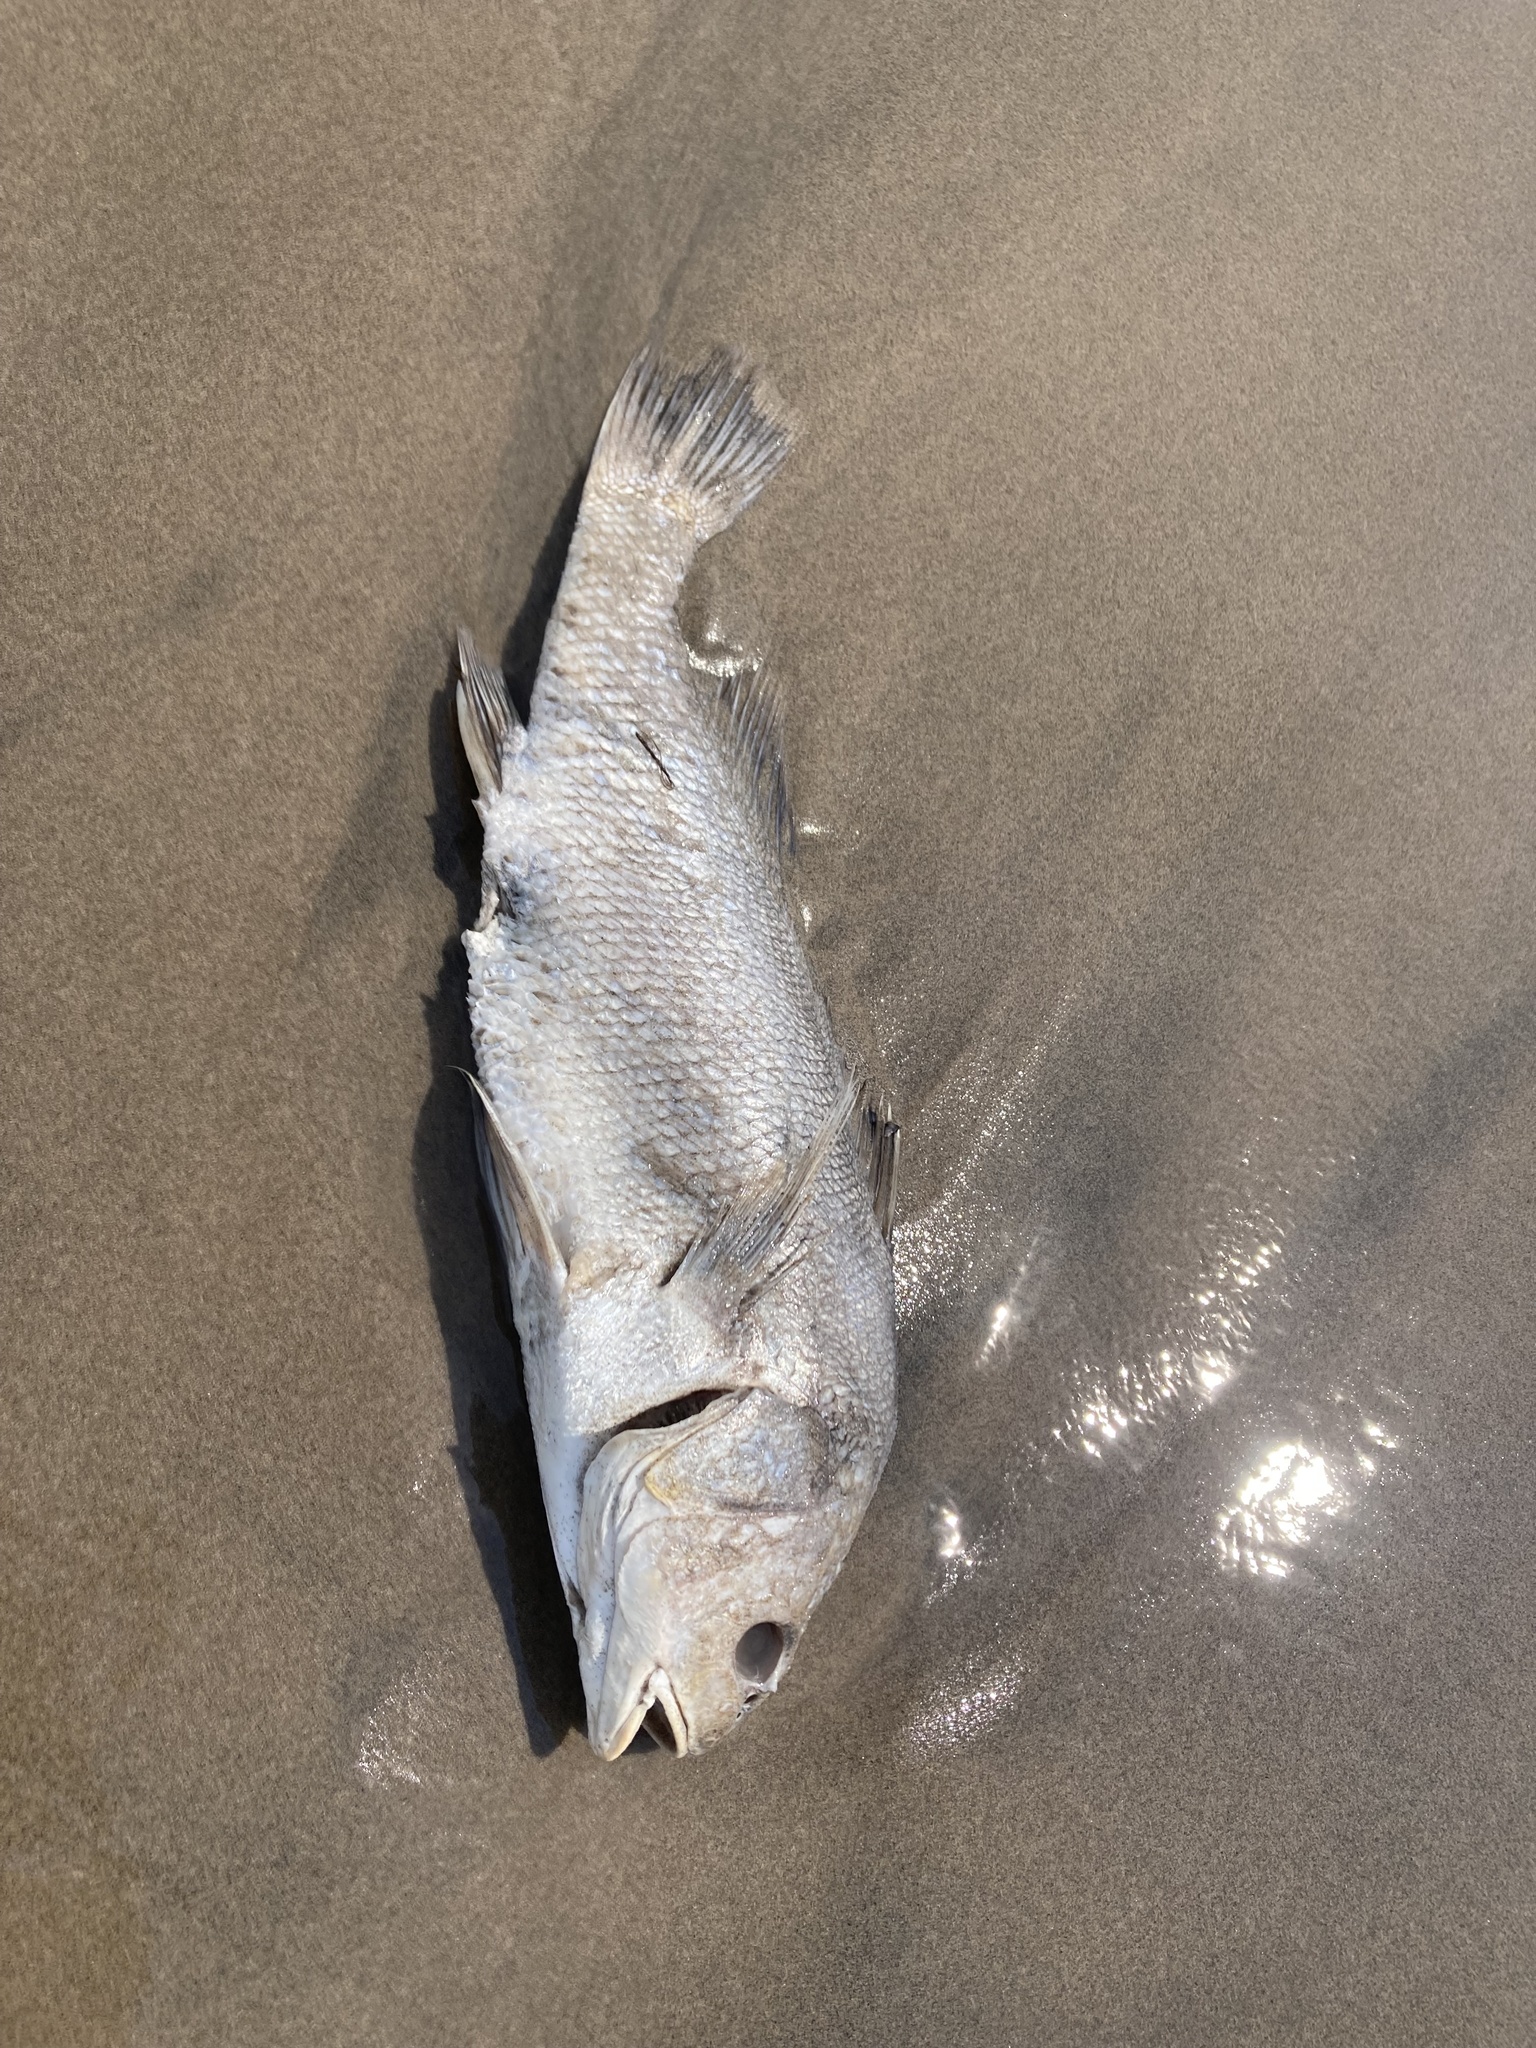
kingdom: Animalia
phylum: Chordata
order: Perciformes
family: Sciaenidae
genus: Aplodinotus
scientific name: Aplodinotus grunniens
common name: Freshwater drum
